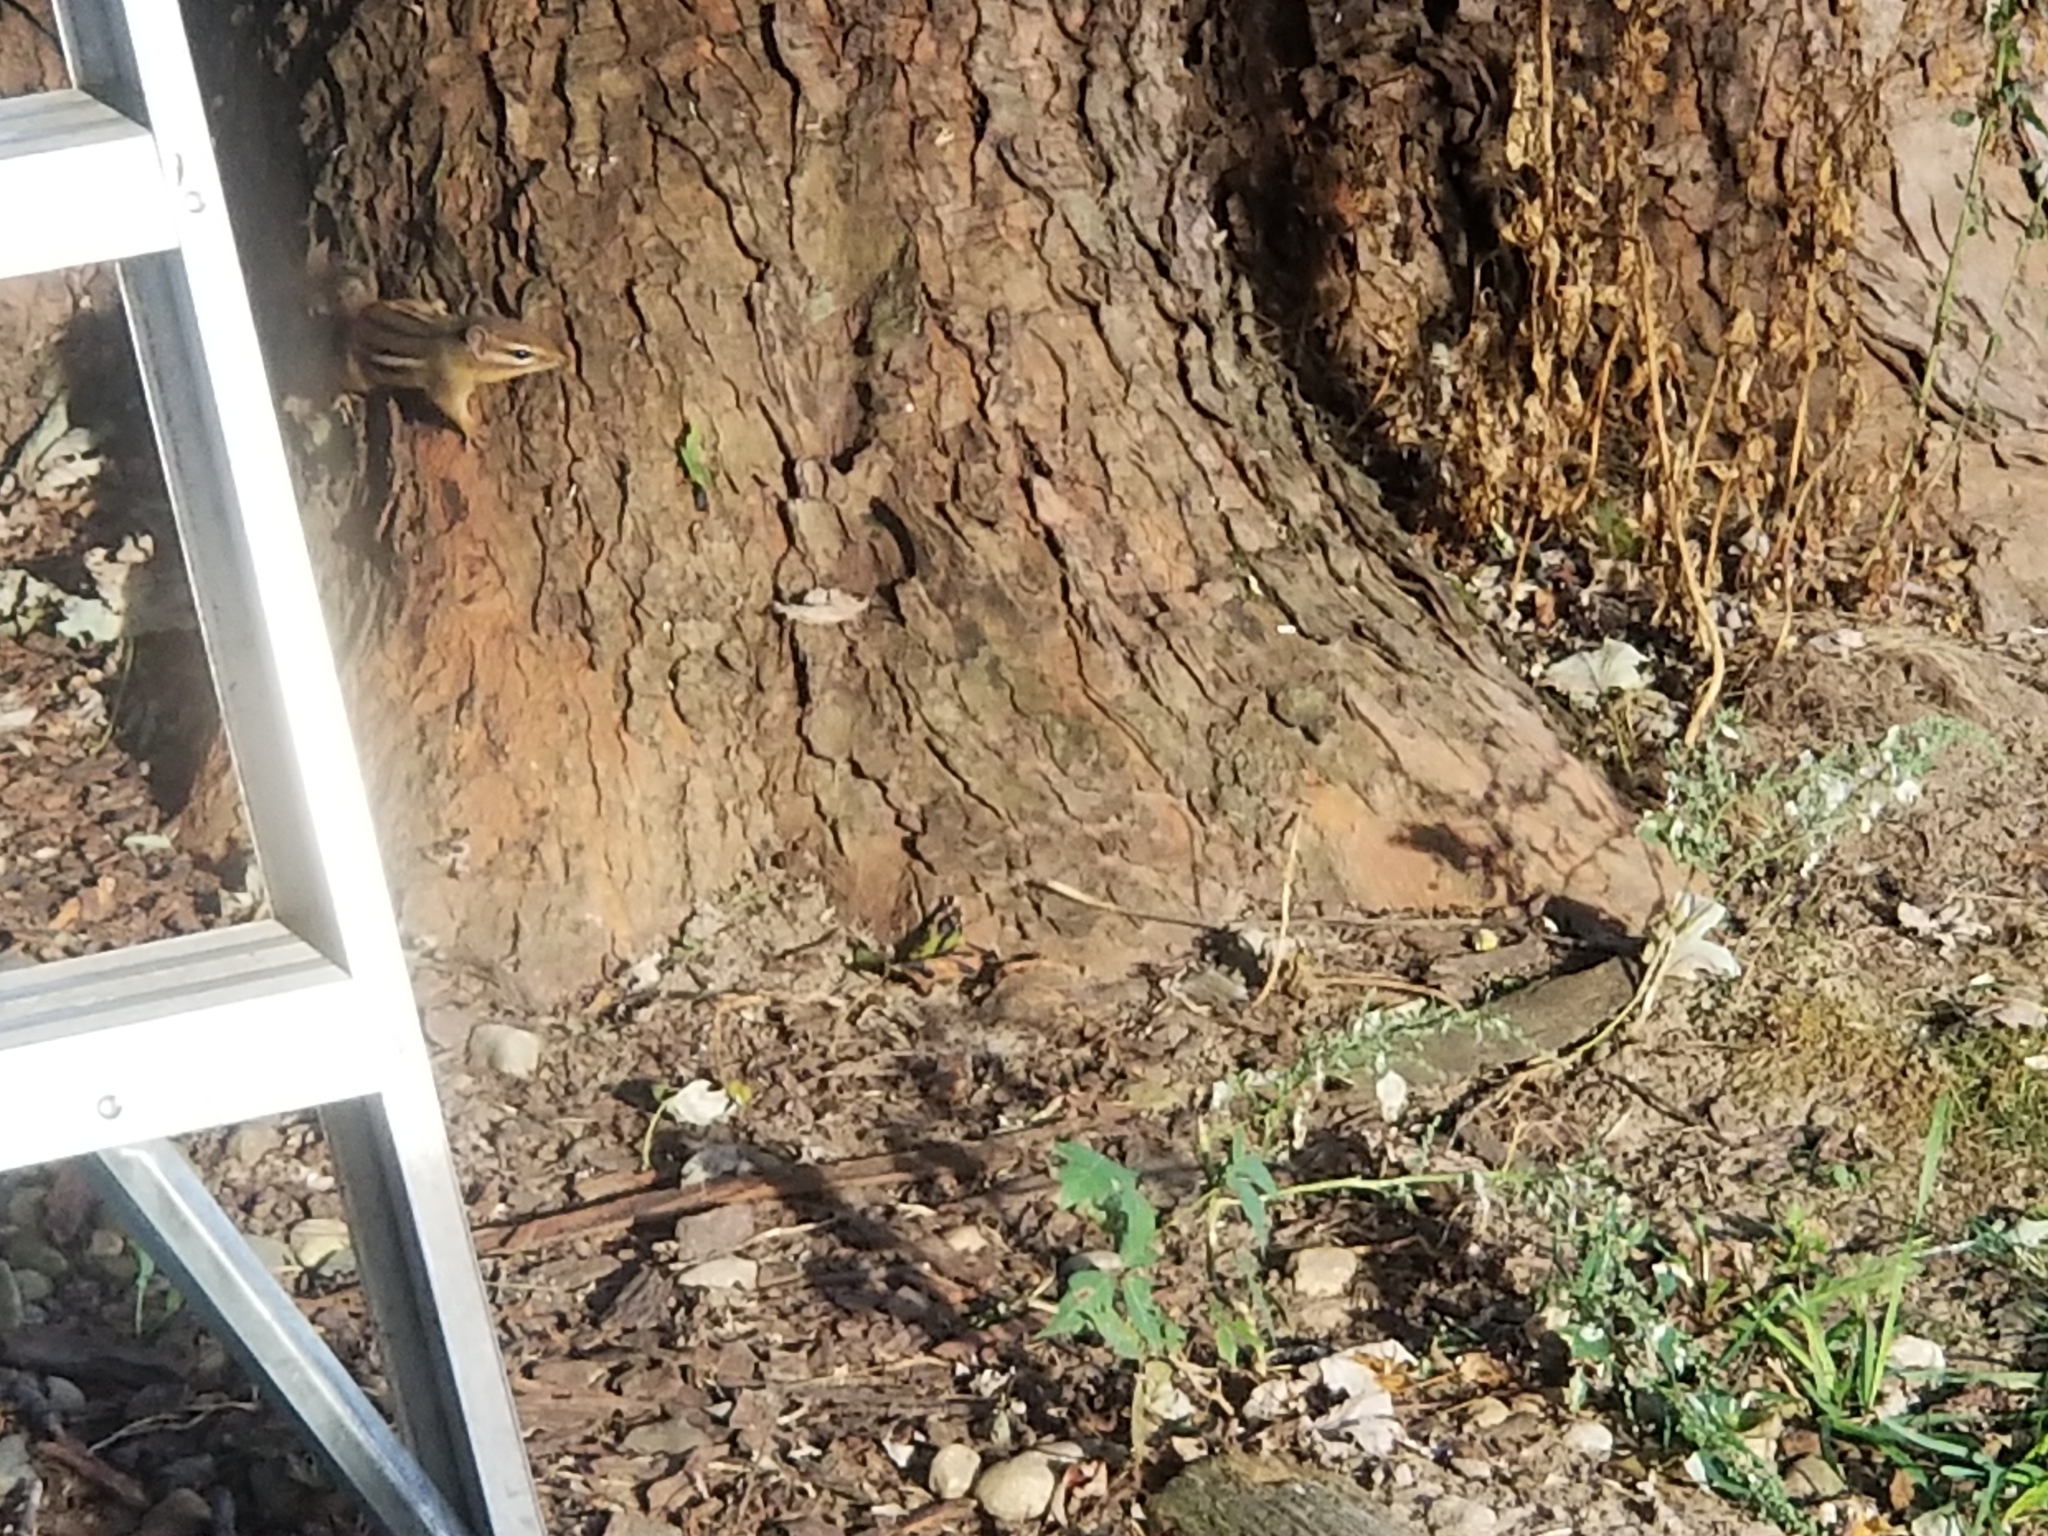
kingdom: Animalia
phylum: Chordata
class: Mammalia
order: Rodentia
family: Sciuridae
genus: Tamias
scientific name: Tamias striatus
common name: Eastern chipmunk
